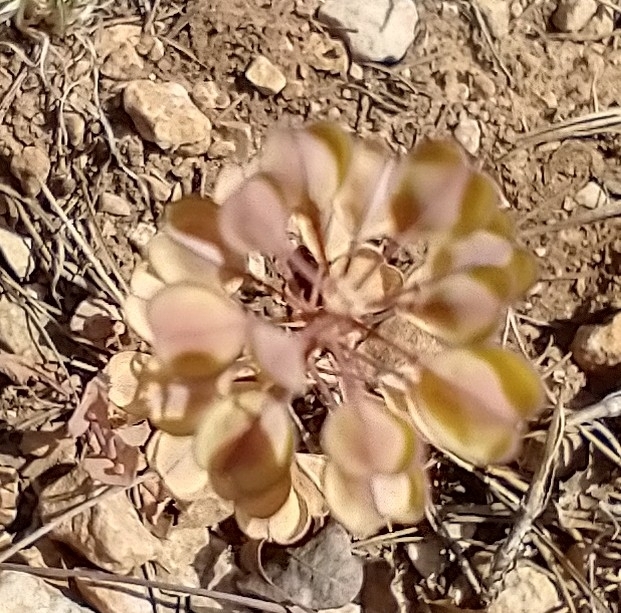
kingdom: Plantae
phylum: Tracheophyta
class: Magnoliopsida
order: Brassicales
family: Brassicaceae
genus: Noccaea
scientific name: Noccaea perfoliata
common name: Perfoliate pennycress
